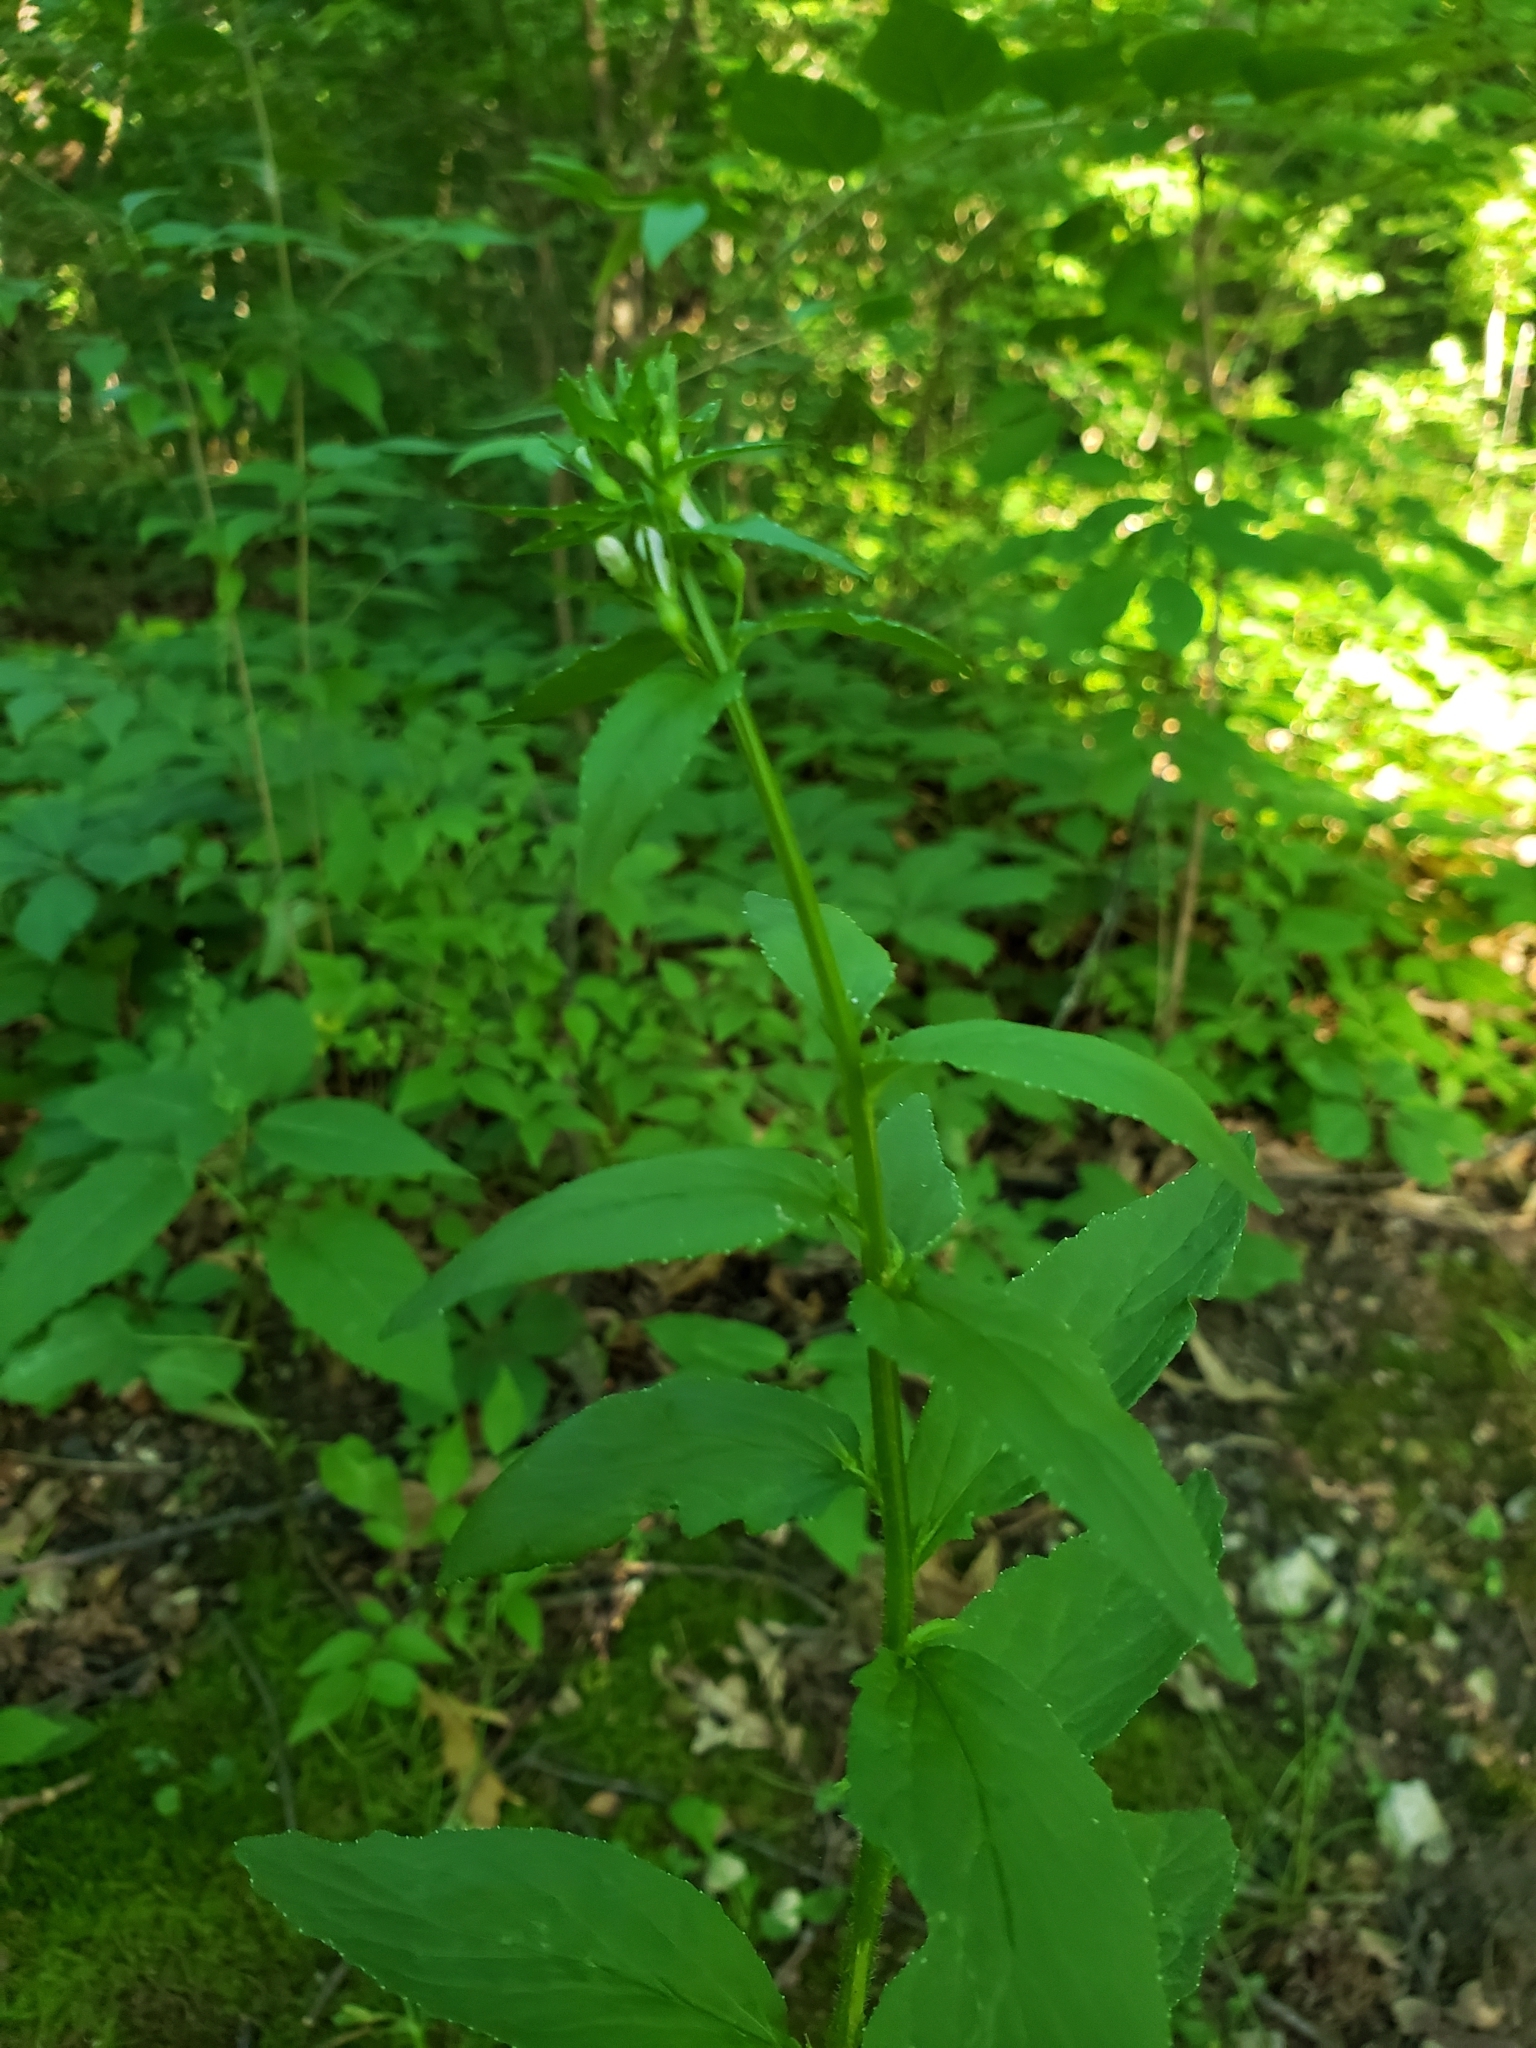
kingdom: Plantae
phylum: Tracheophyta
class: Magnoliopsida
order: Asterales
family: Campanulaceae
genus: Lobelia
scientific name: Lobelia inflata
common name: Indian tobacco
